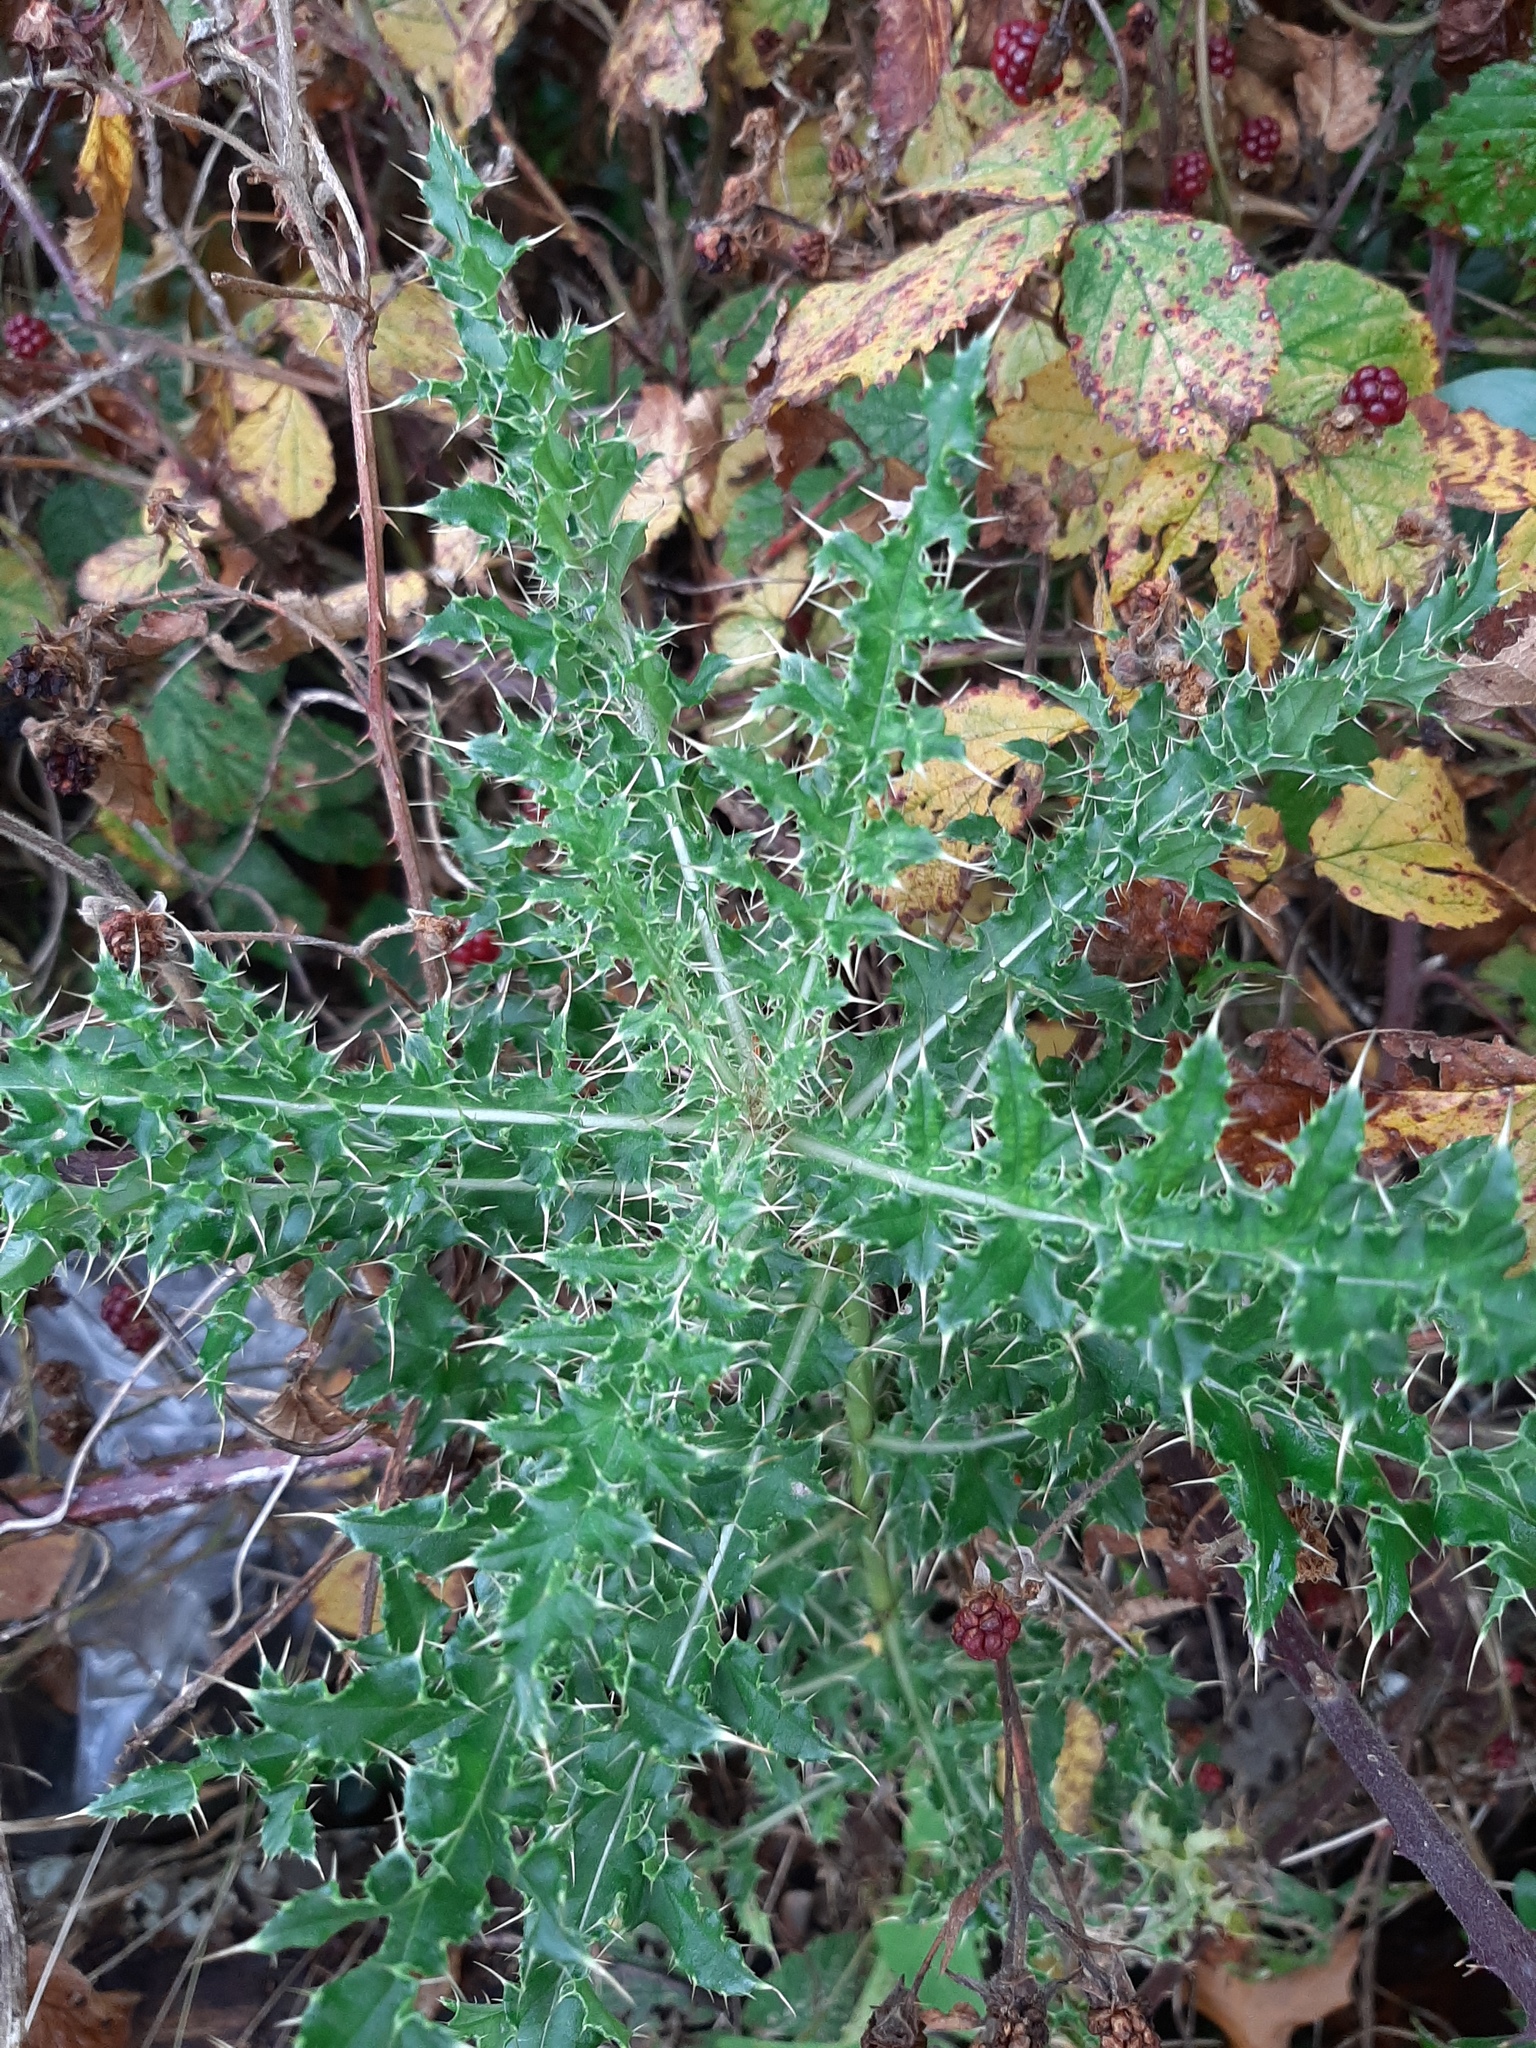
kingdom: Plantae
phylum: Tracheophyta
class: Magnoliopsida
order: Asterales
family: Asteraceae
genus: Cirsium
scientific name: Cirsium arvense
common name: Creeping thistle
